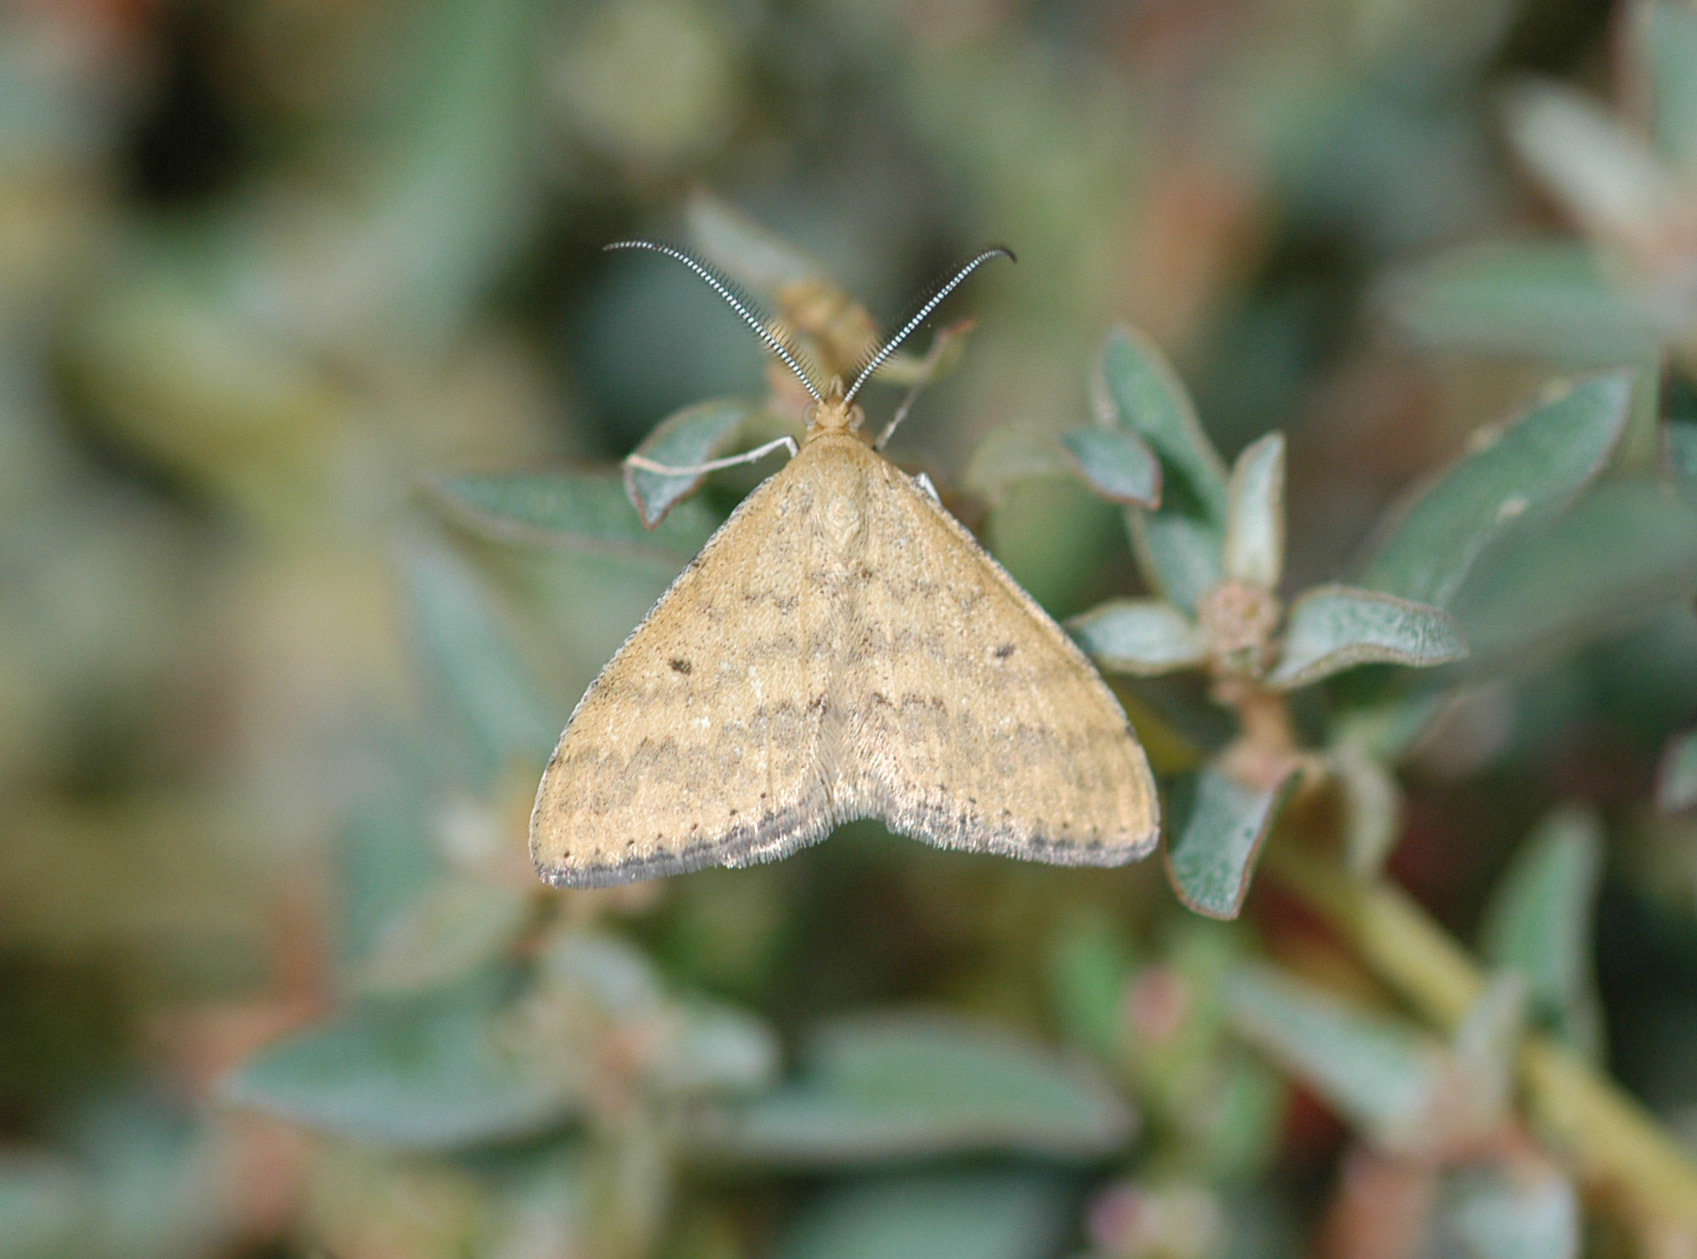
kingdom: Animalia
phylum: Arthropoda
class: Insecta
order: Lepidoptera
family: Geometridae
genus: Scopula
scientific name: Scopula rubraria
